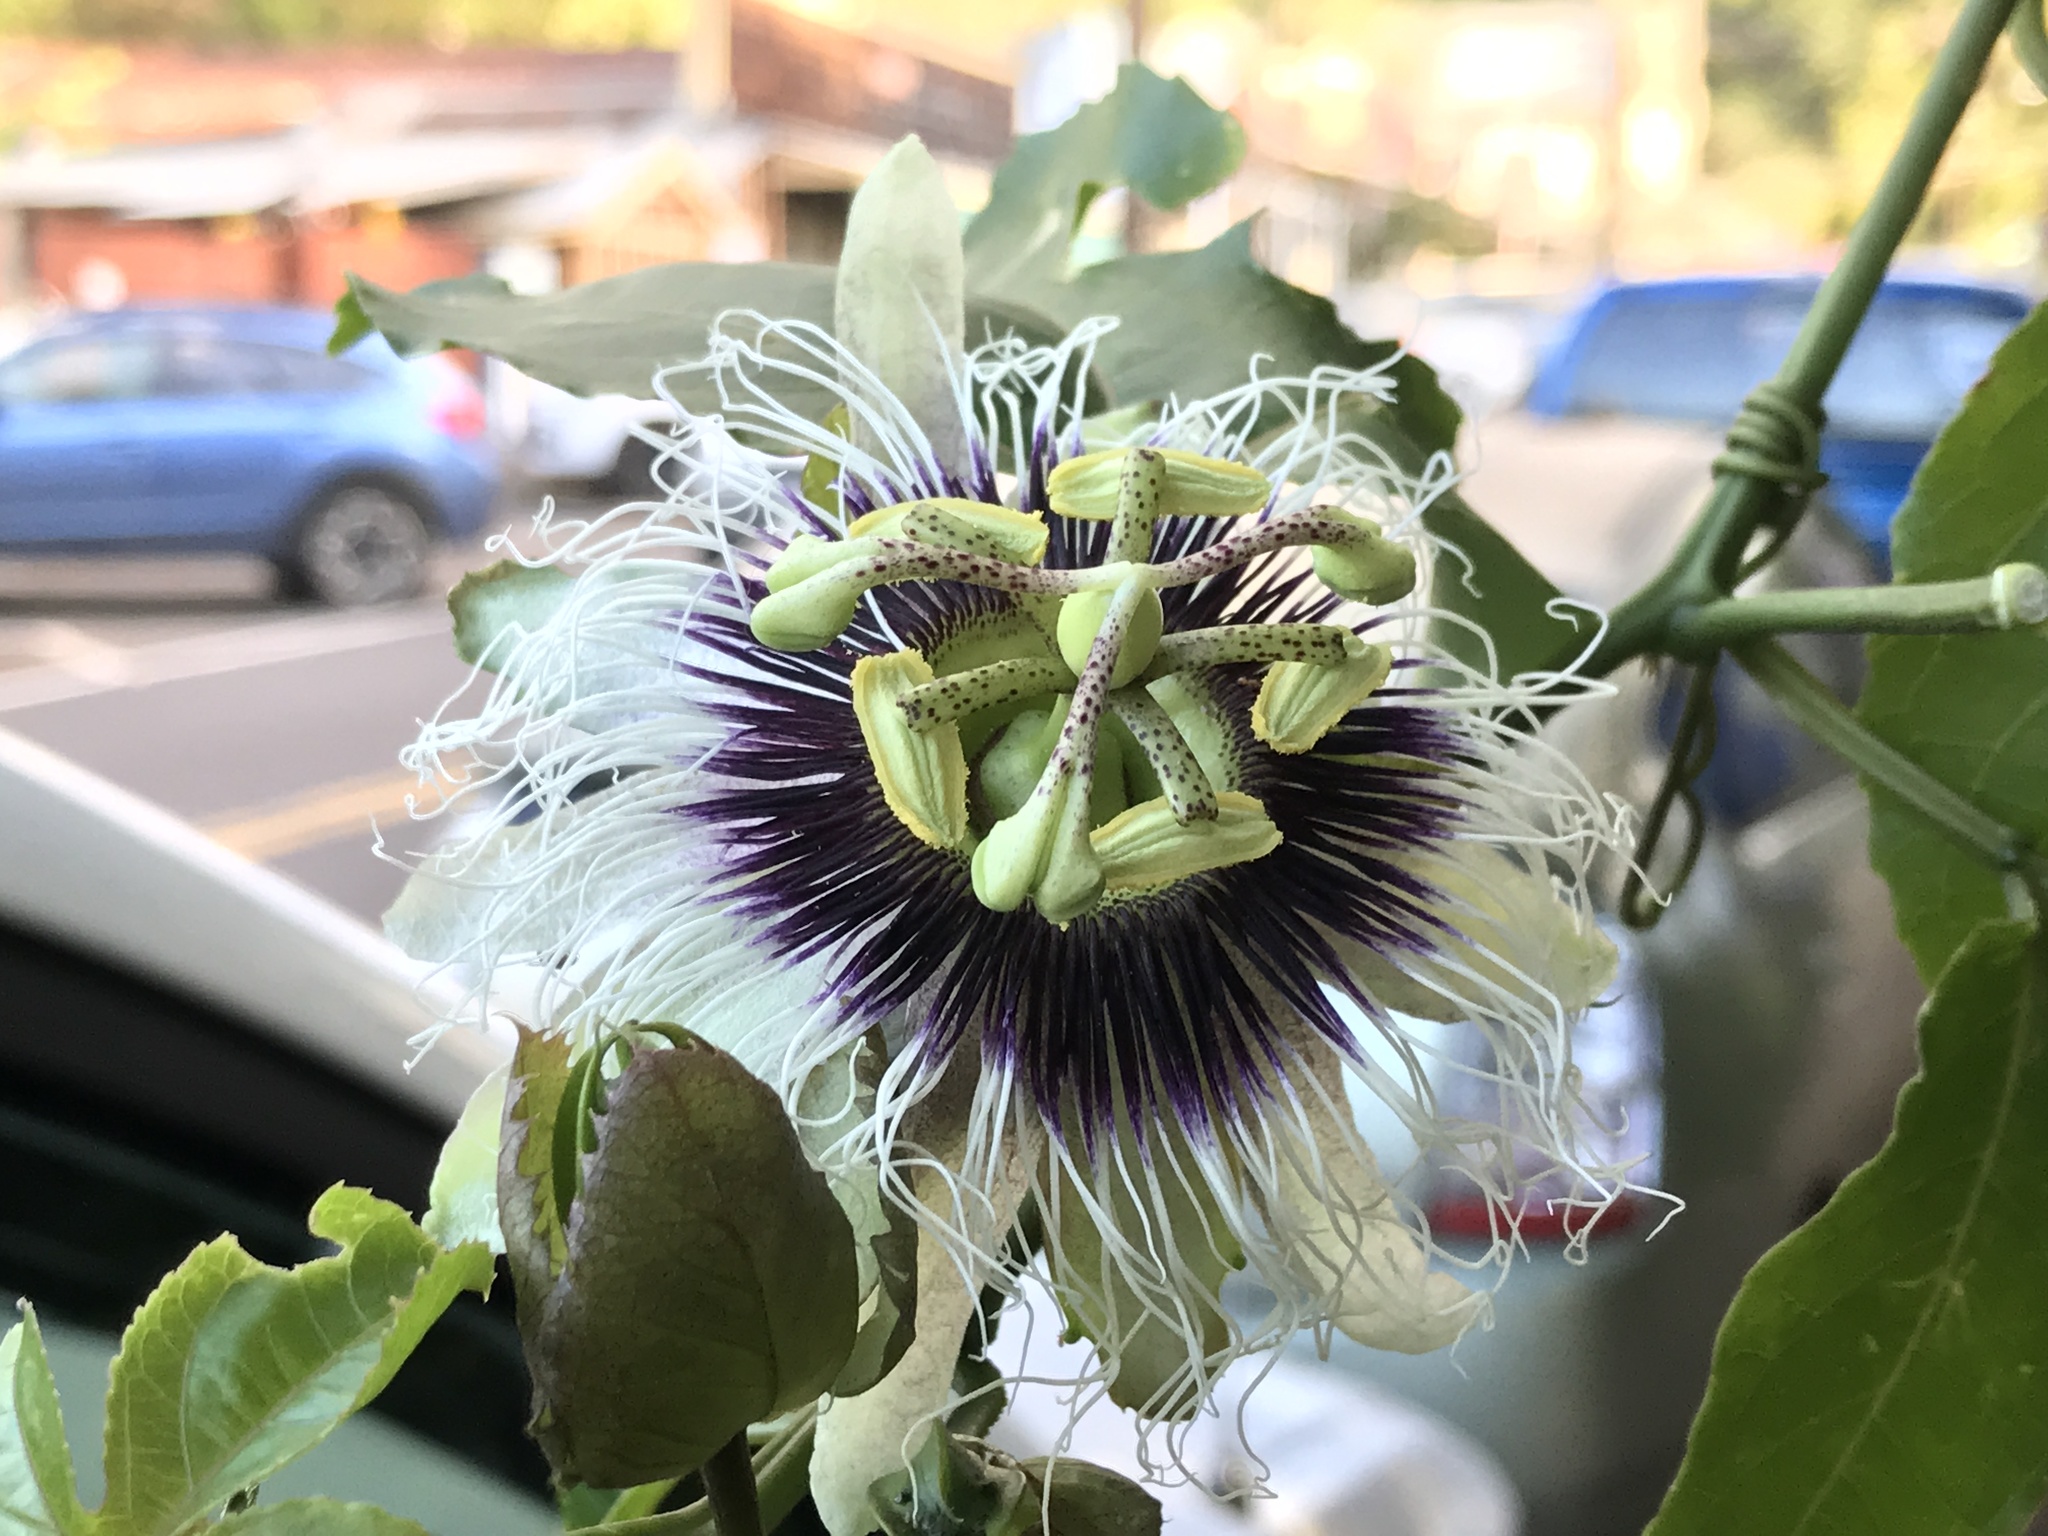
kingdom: Plantae
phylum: Tracheophyta
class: Magnoliopsida
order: Malpighiales
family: Passifloraceae
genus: Passiflora
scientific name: Passiflora edulis
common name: Purple granadilla
